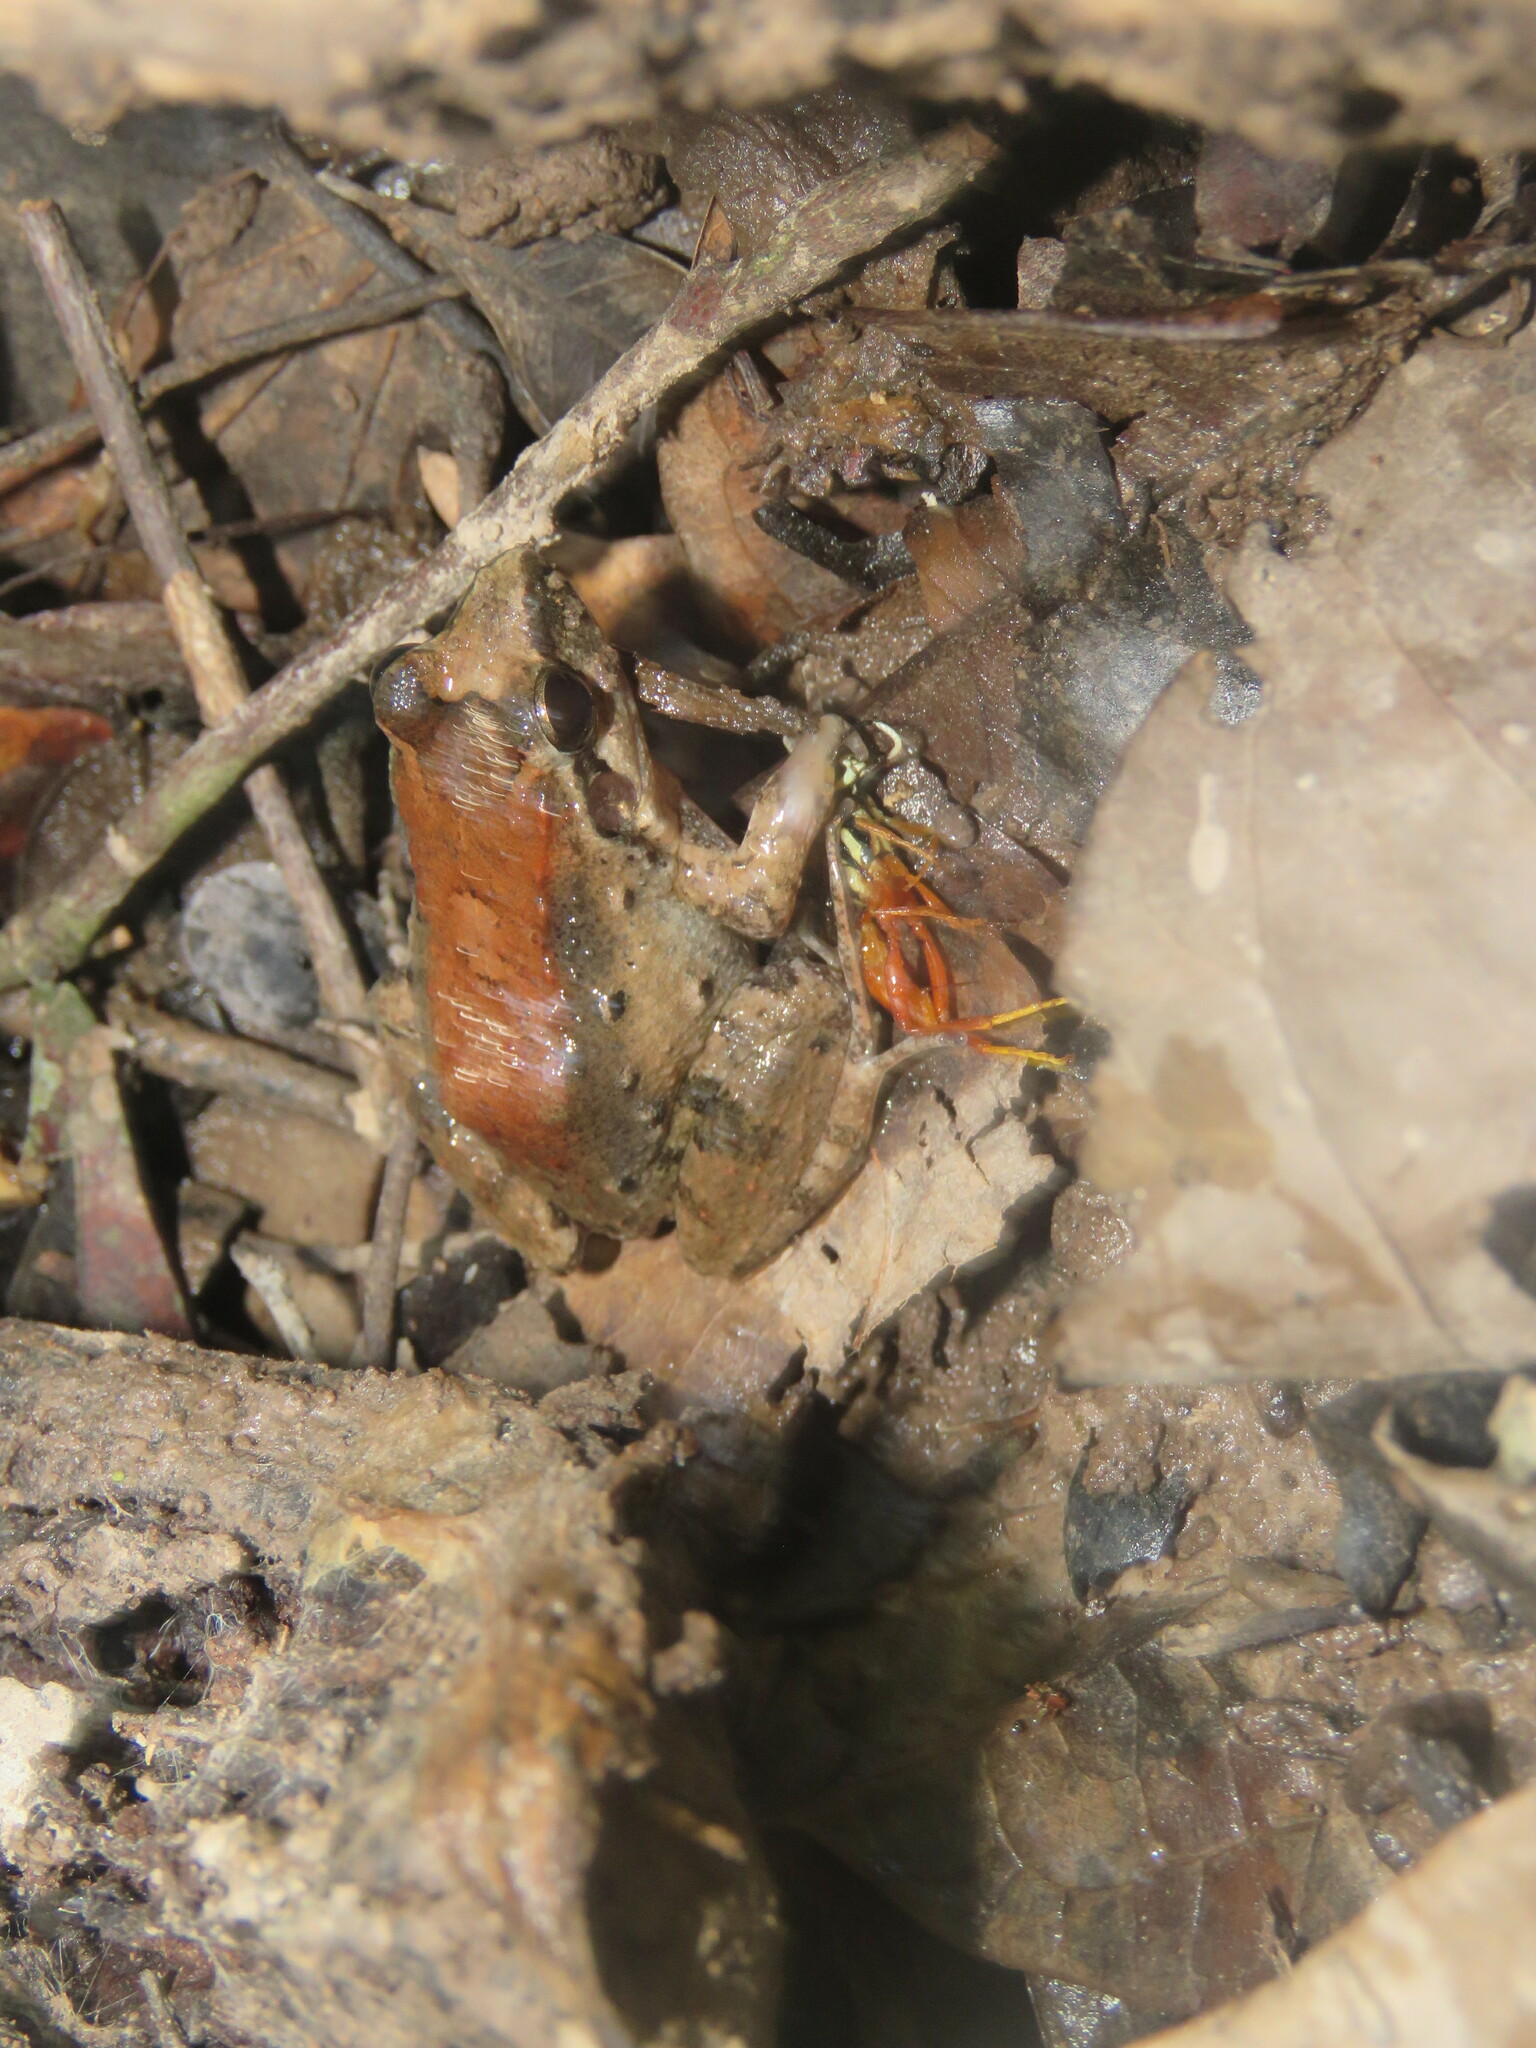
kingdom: Animalia
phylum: Chordata
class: Amphibia
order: Anura
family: Leptodactylidae
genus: Leptodactylus
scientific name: Leptodactylus petersii
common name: Peters' thin-toed frog
